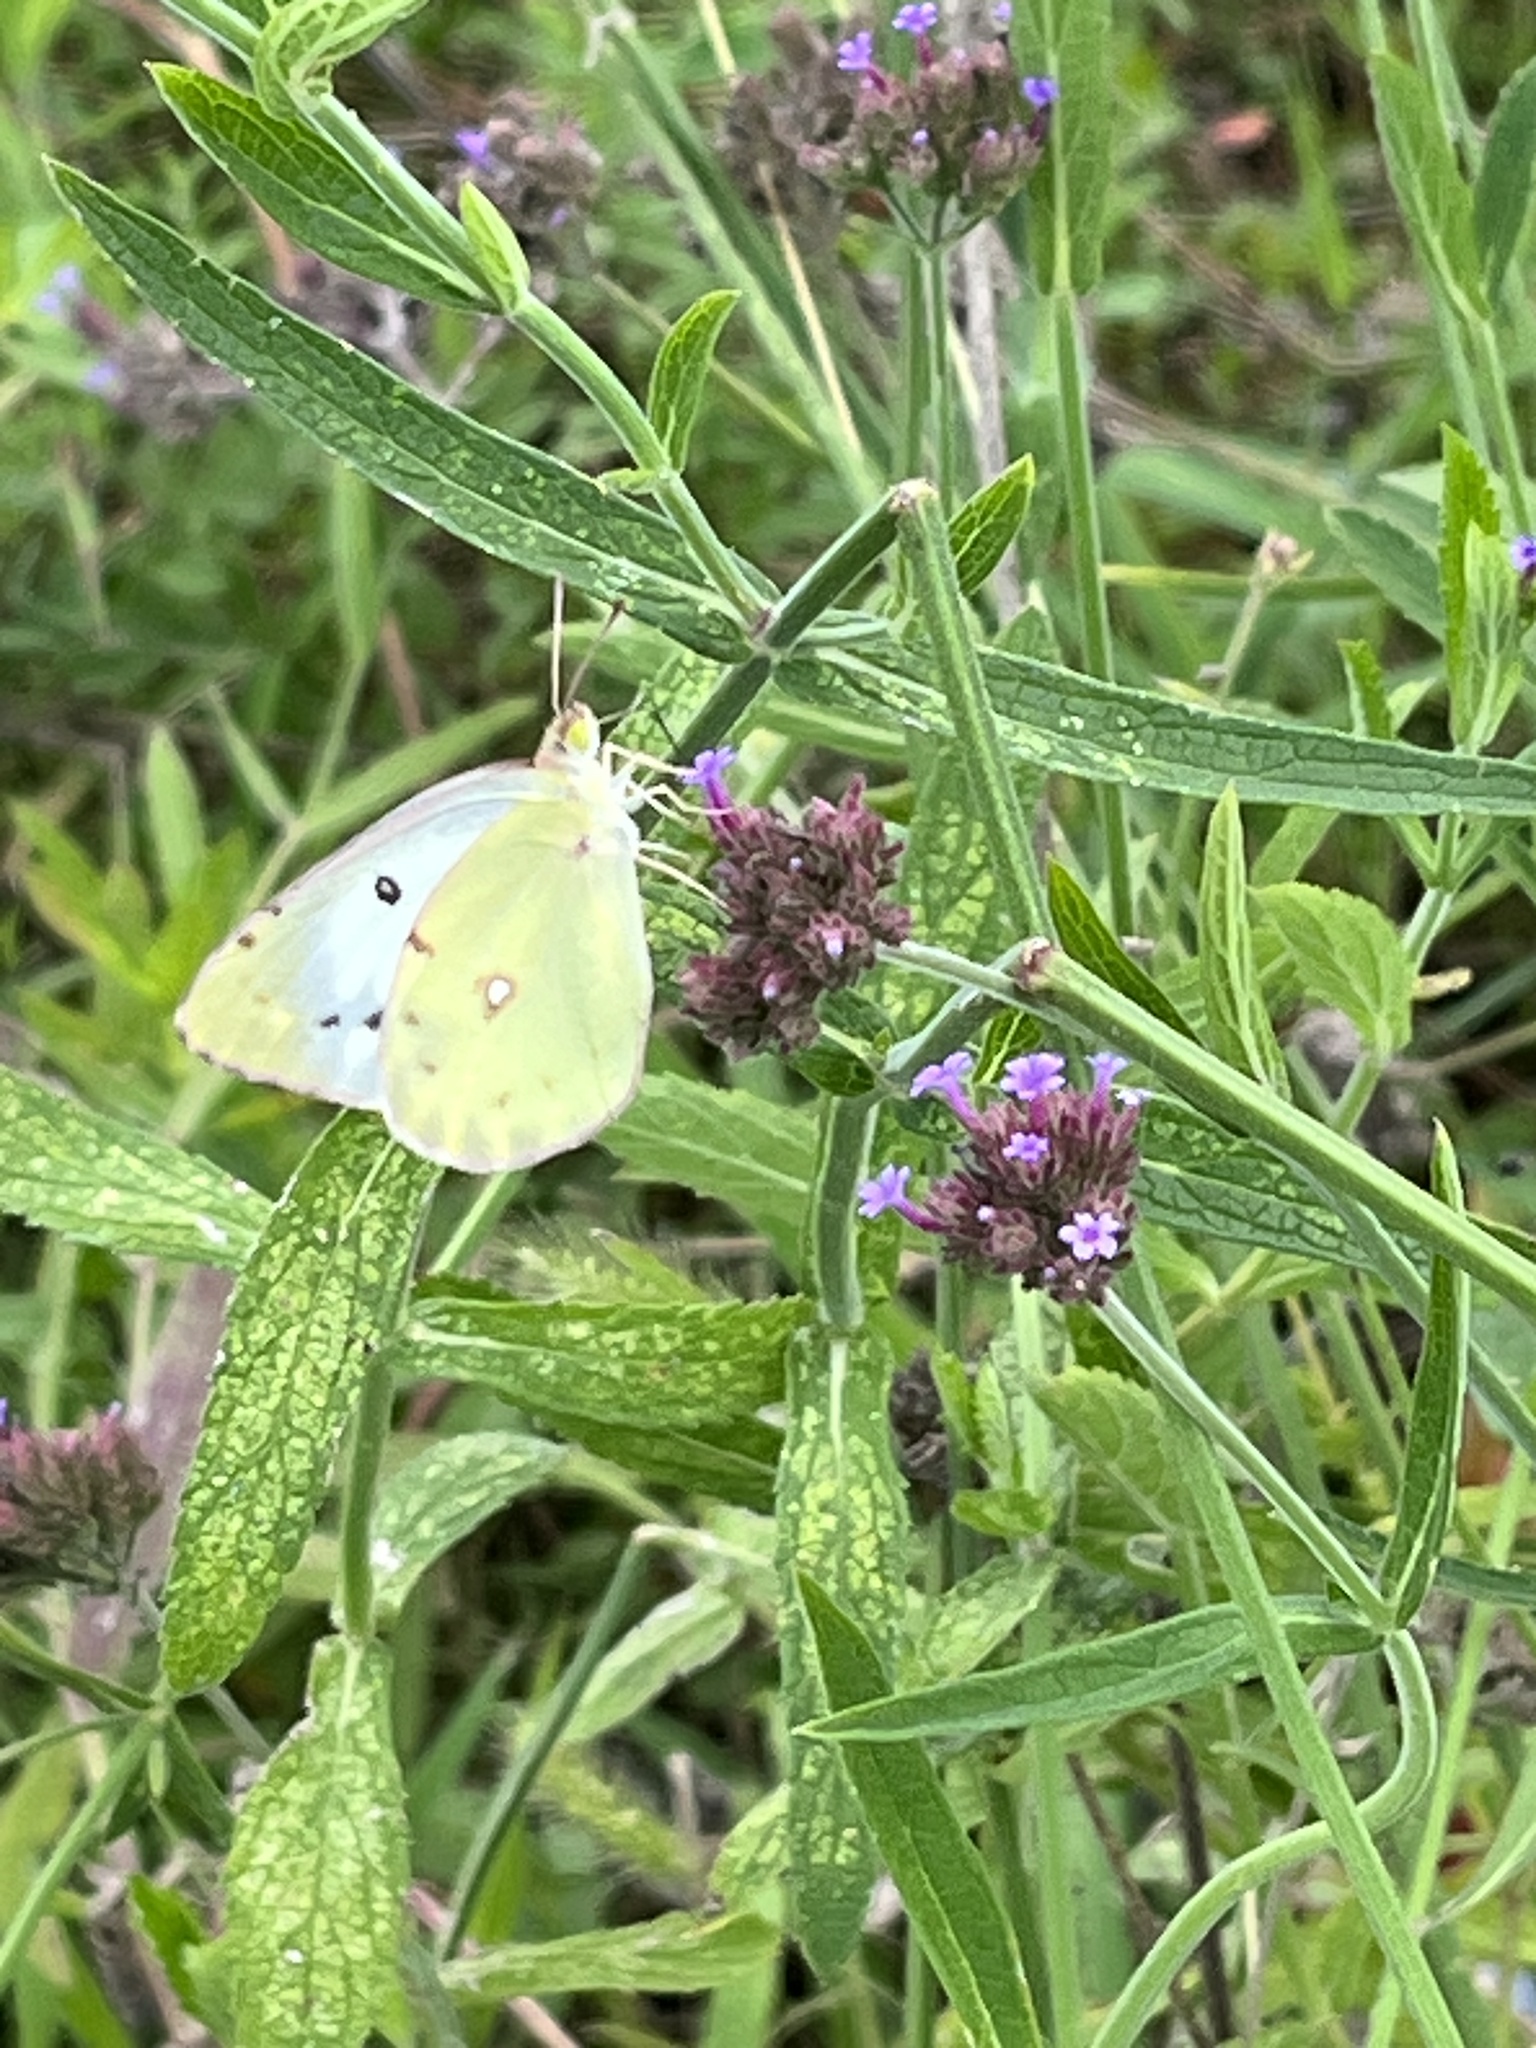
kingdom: Animalia
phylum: Arthropoda
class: Insecta
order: Lepidoptera
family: Pieridae
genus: Colias
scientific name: Colias poliographus
